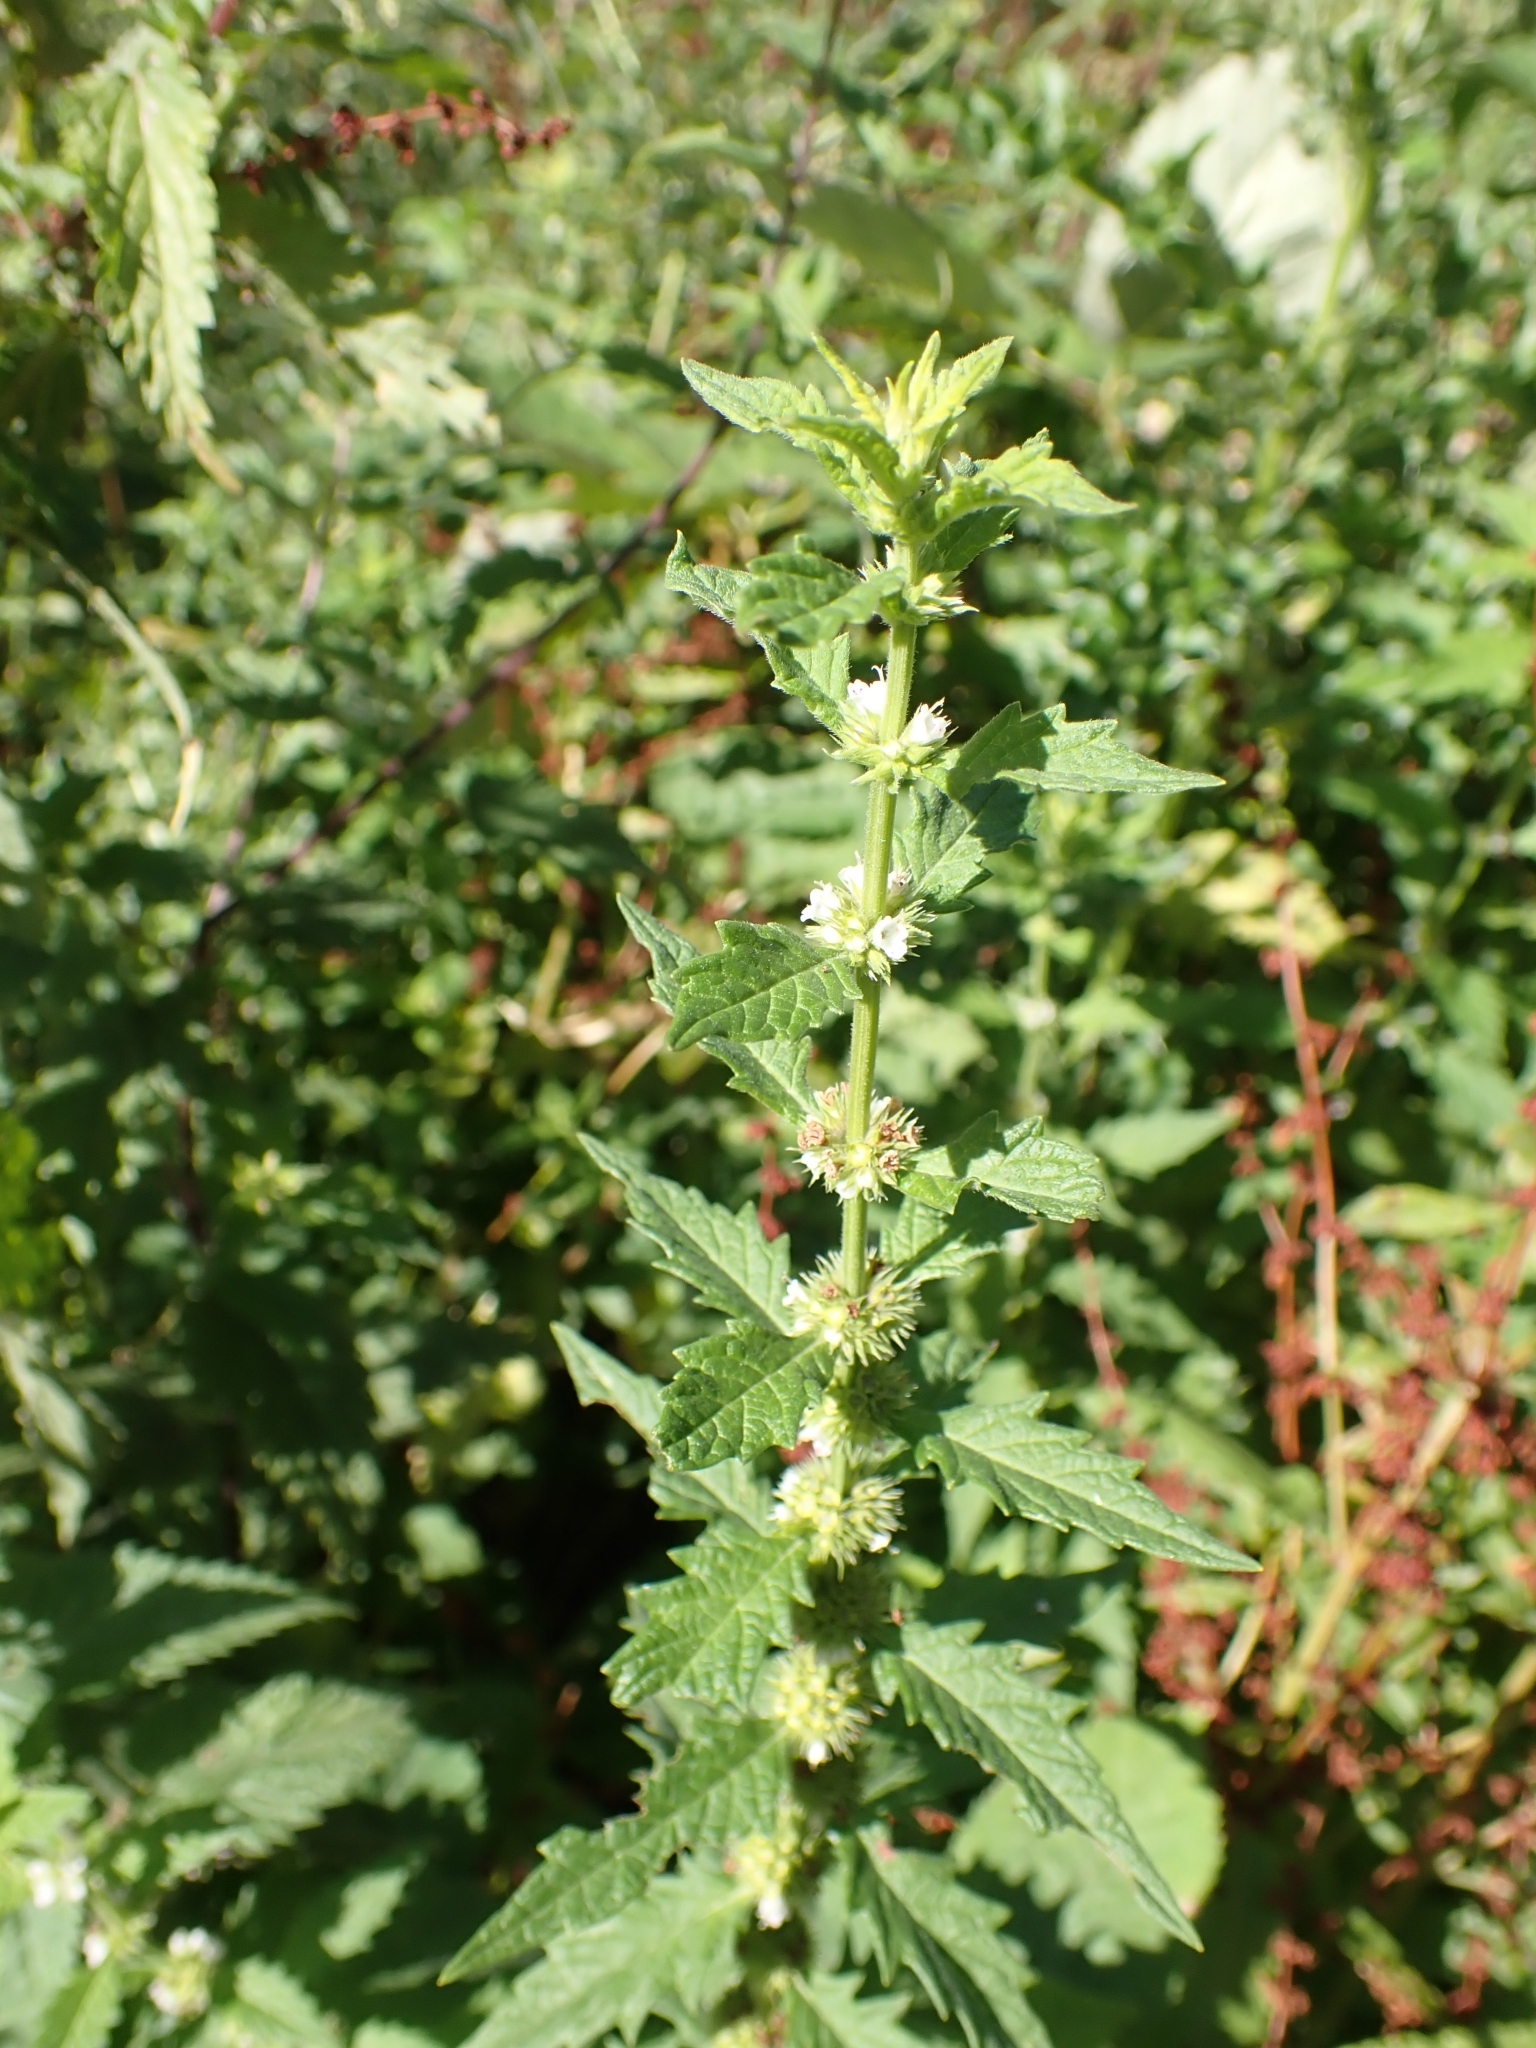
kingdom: Plantae
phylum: Tracheophyta
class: Magnoliopsida
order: Lamiales
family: Lamiaceae
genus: Lycopus
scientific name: Lycopus europaeus
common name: European bugleweed
